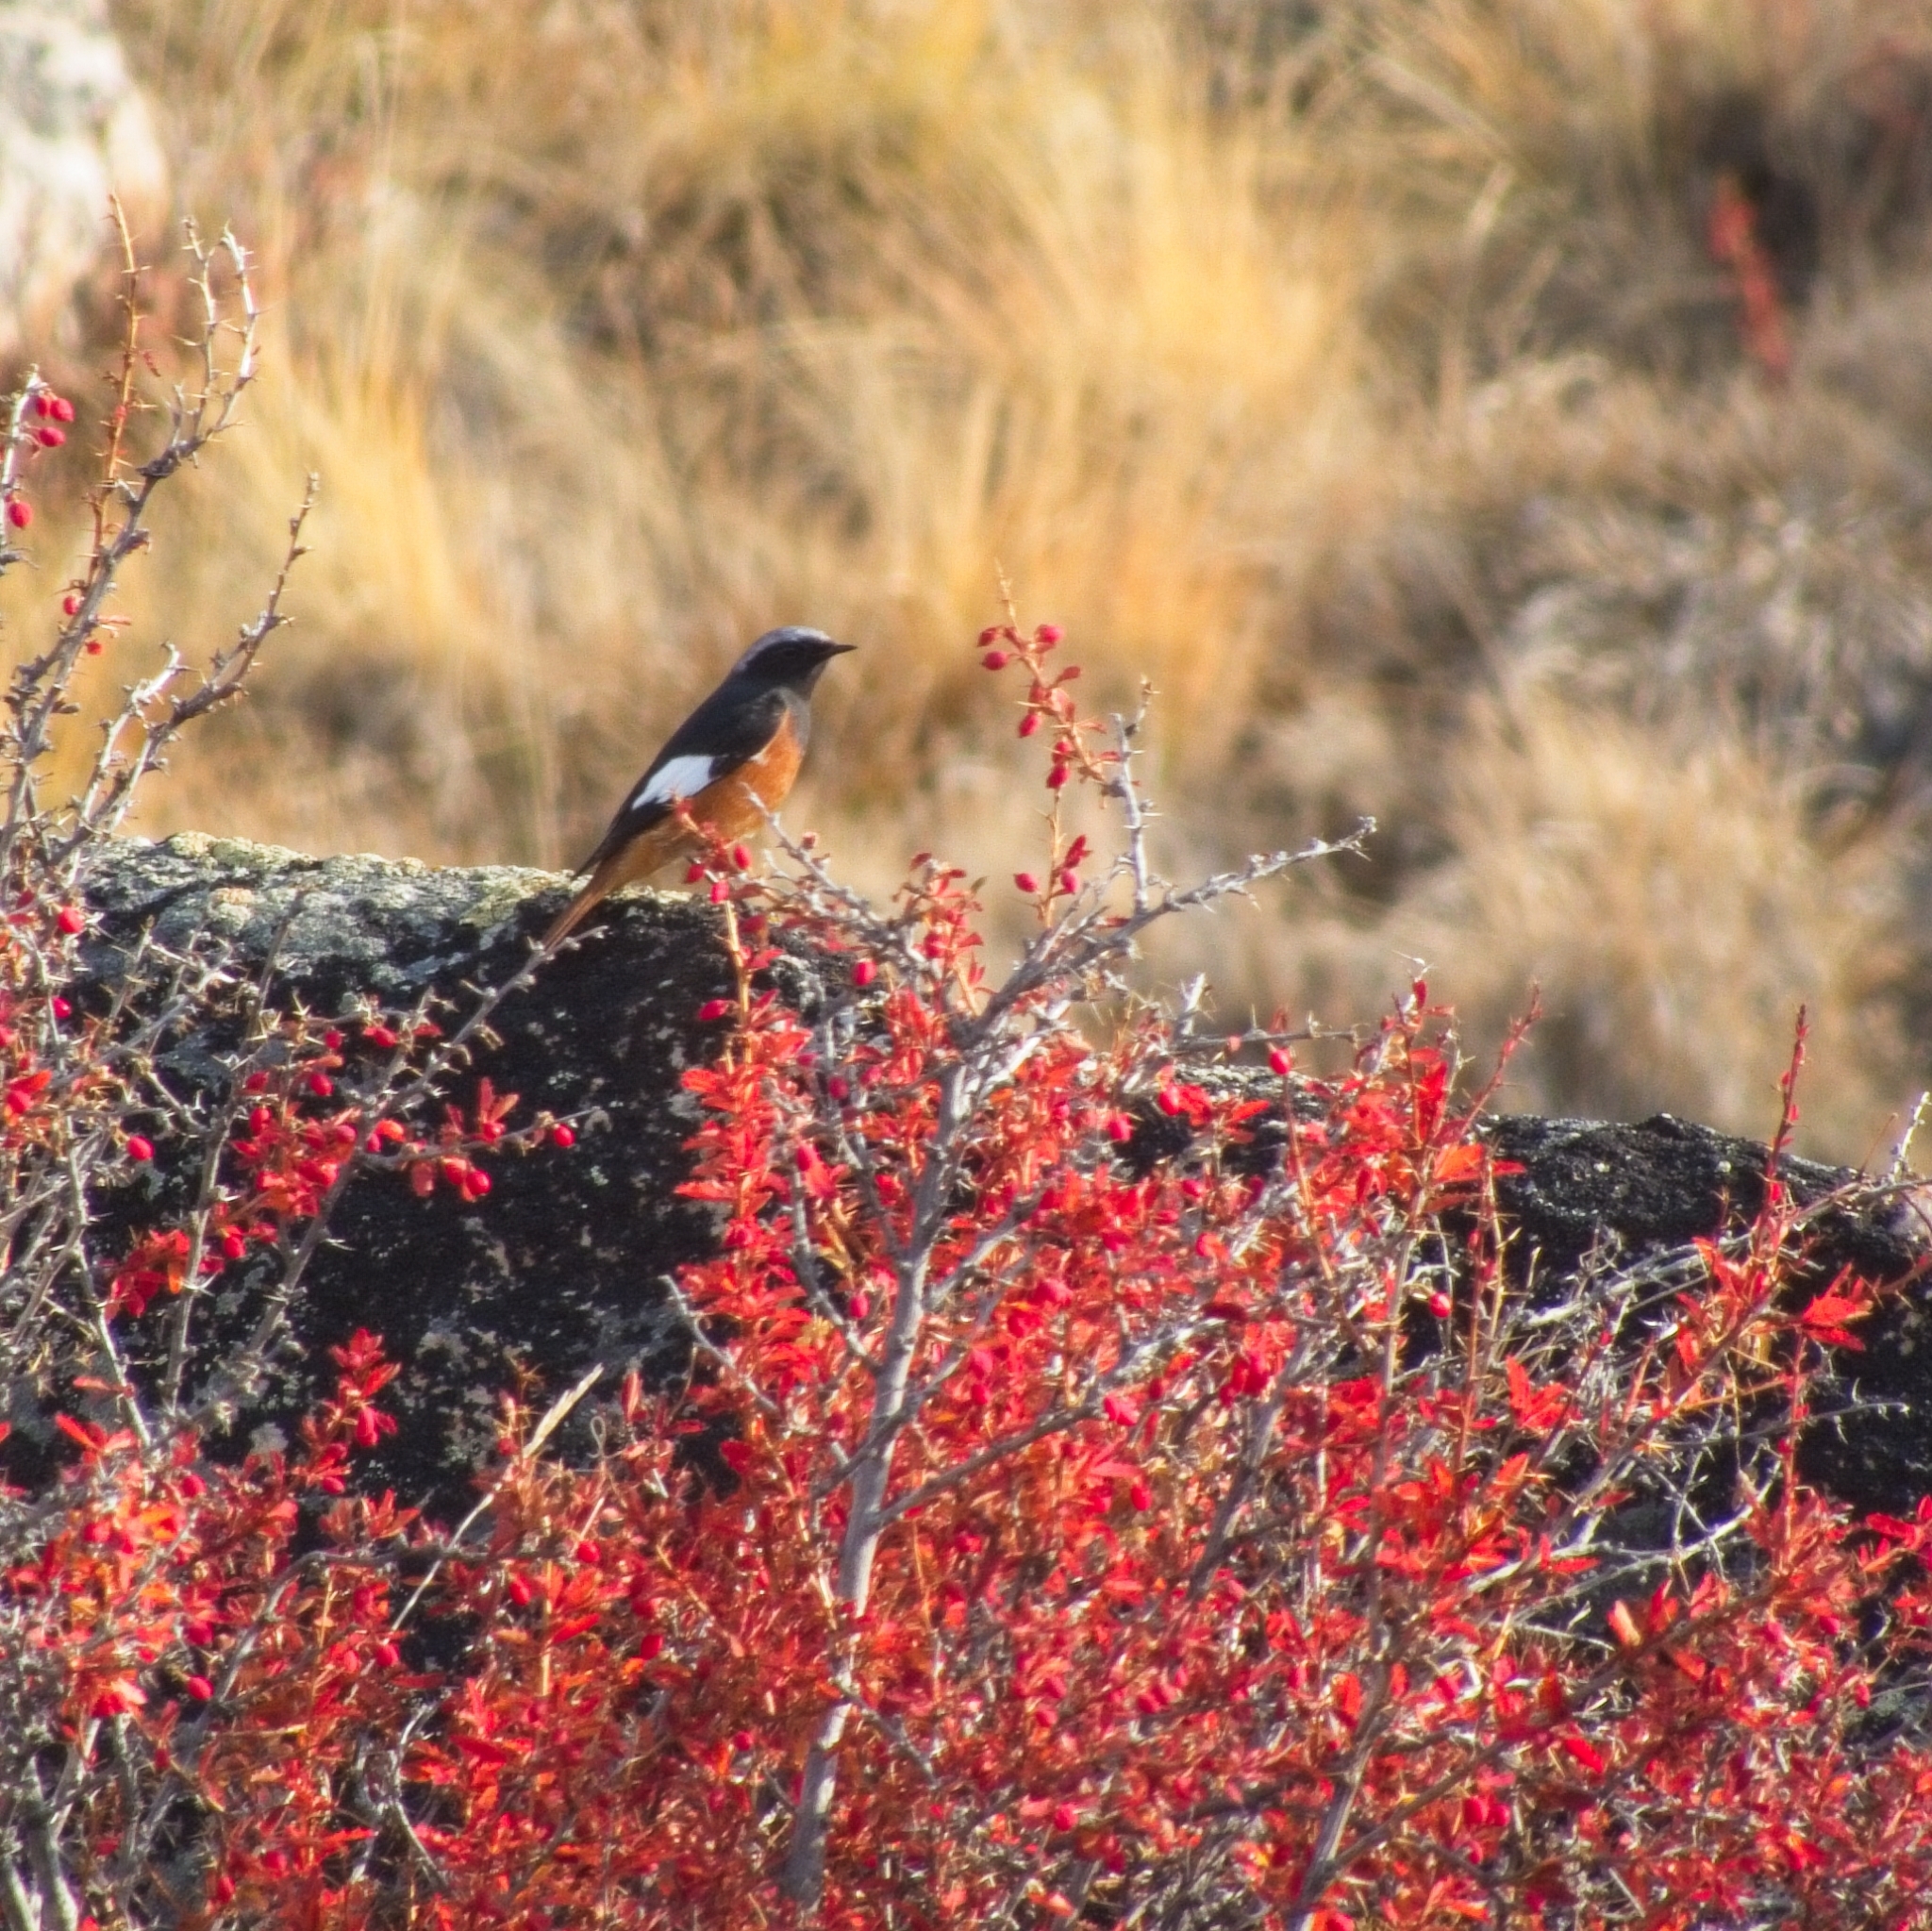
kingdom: Animalia
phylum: Chordata
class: Aves
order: Passeriformes
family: Muscicapidae
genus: Phoenicurus
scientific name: Phoenicurus erythrogastrus
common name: Güldenstädt's redstart
